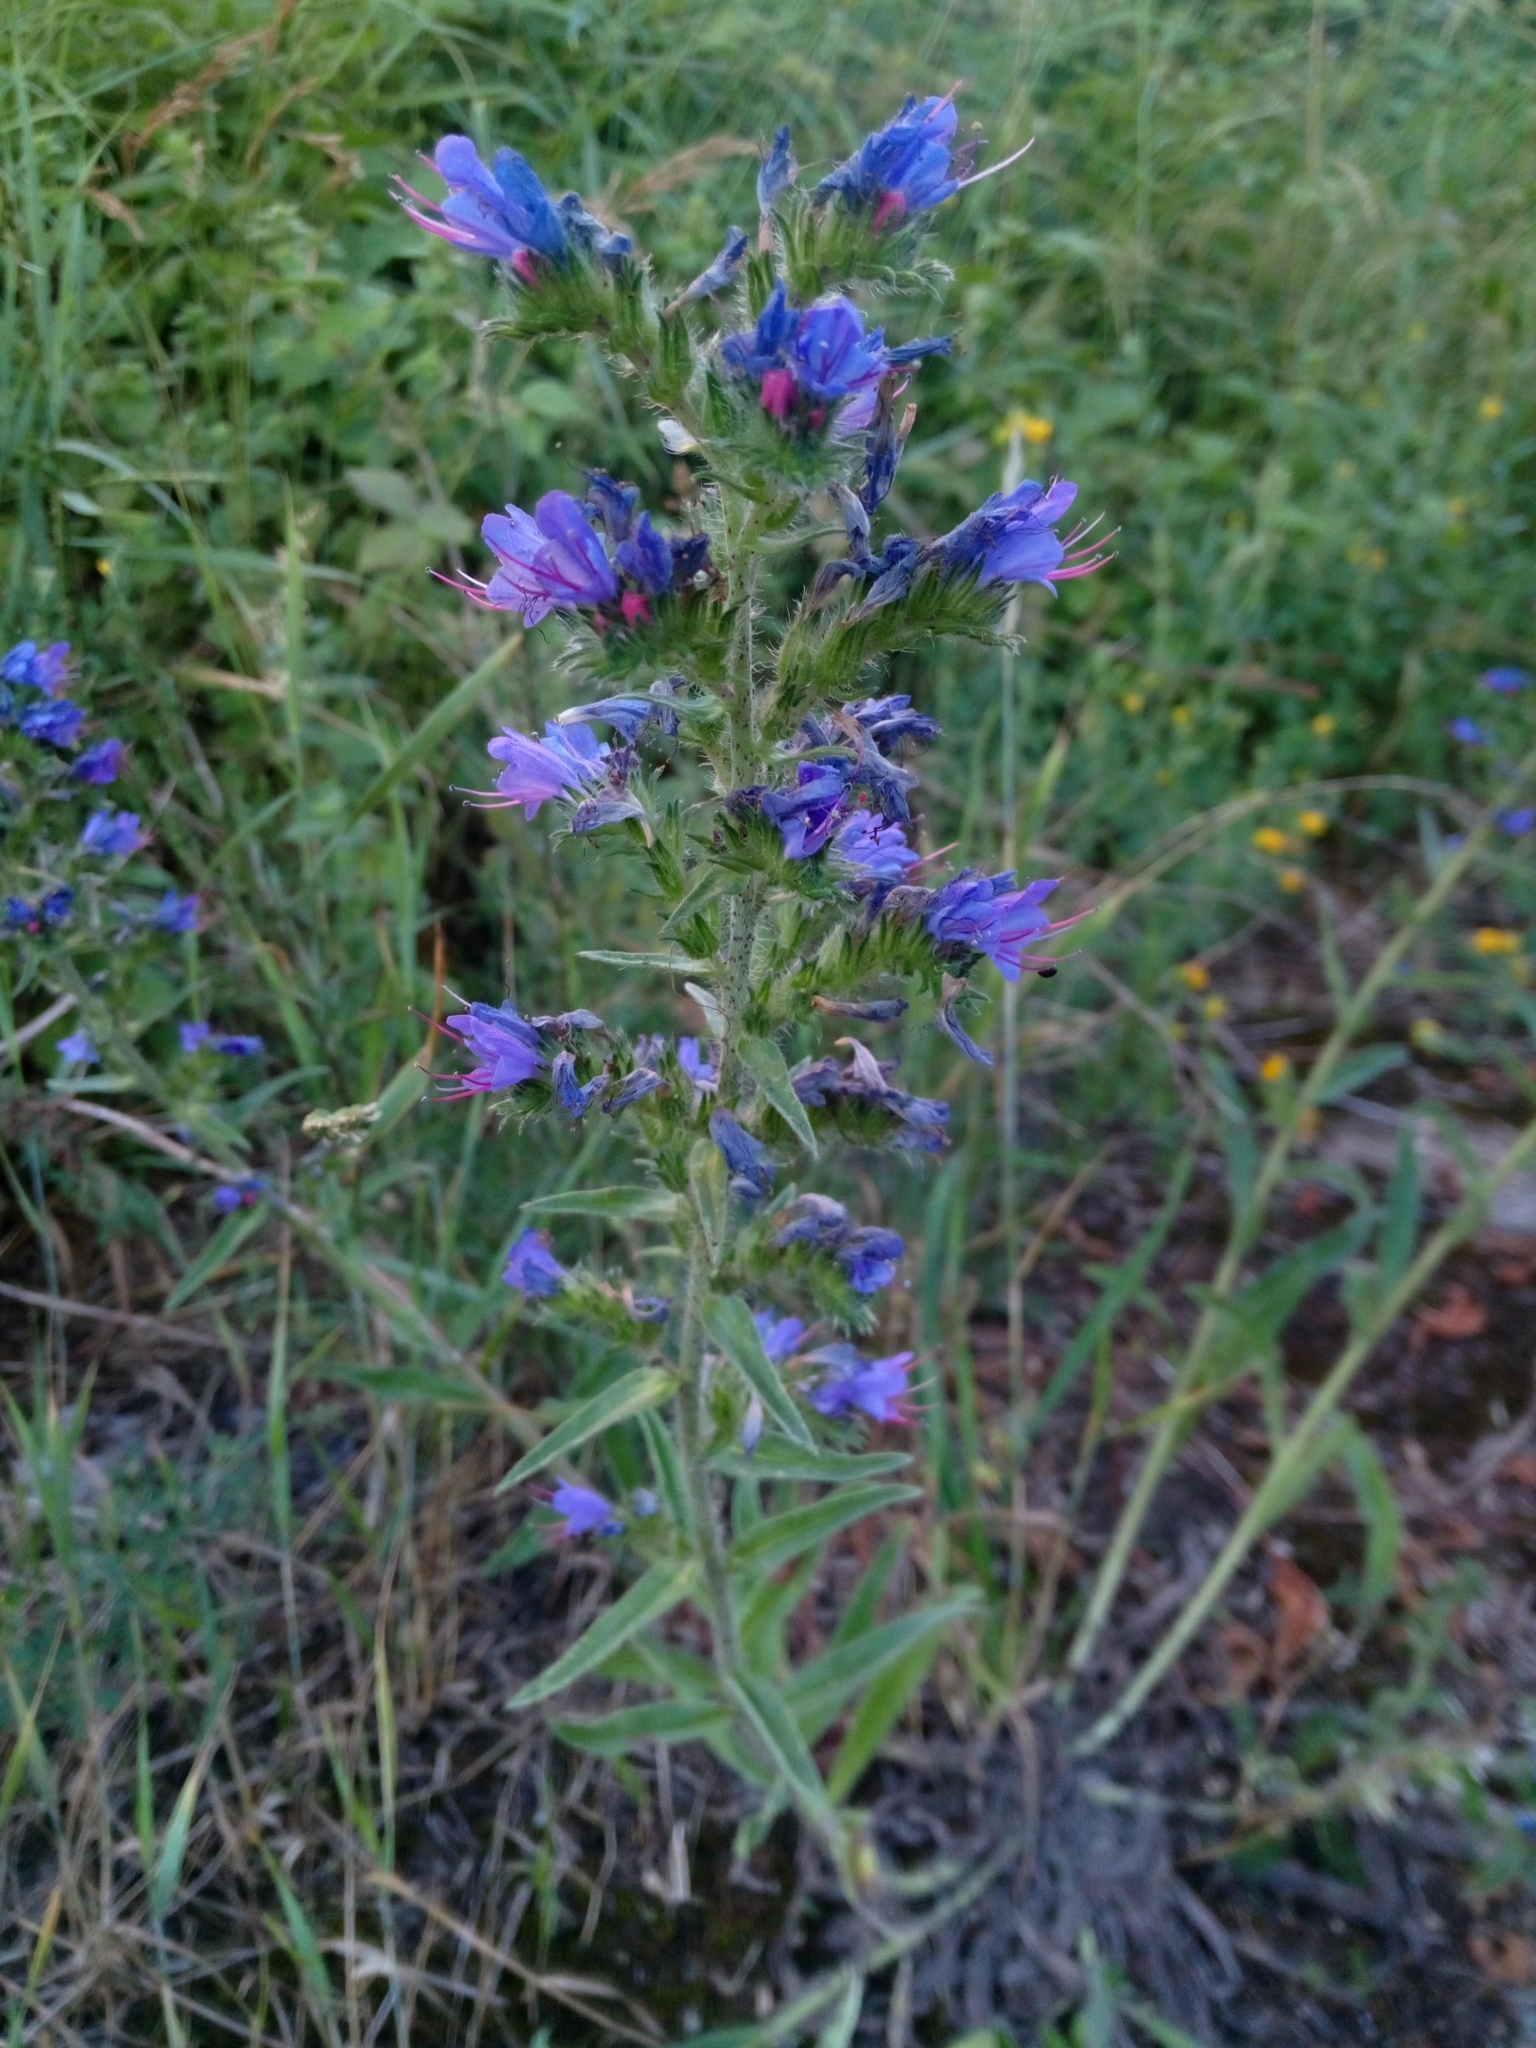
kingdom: Plantae
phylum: Tracheophyta
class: Magnoliopsida
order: Boraginales
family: Boraginaceae
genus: Echium
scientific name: Echium vulgare
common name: Common viper's bugloss
